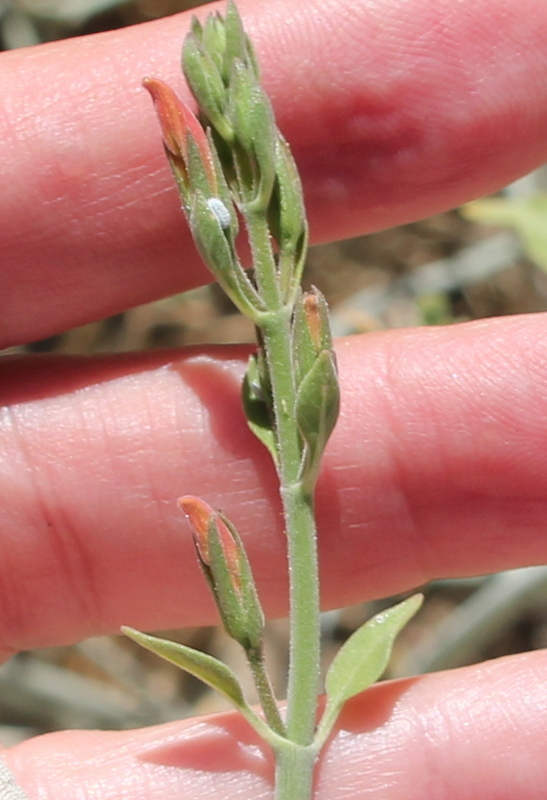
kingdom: Plantae
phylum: Tracheophyta
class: Magnoliopsida
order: Lamiales
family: Acanthaceae
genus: Justicia
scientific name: Justicia californica
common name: Chuparosa-honeysuckle
